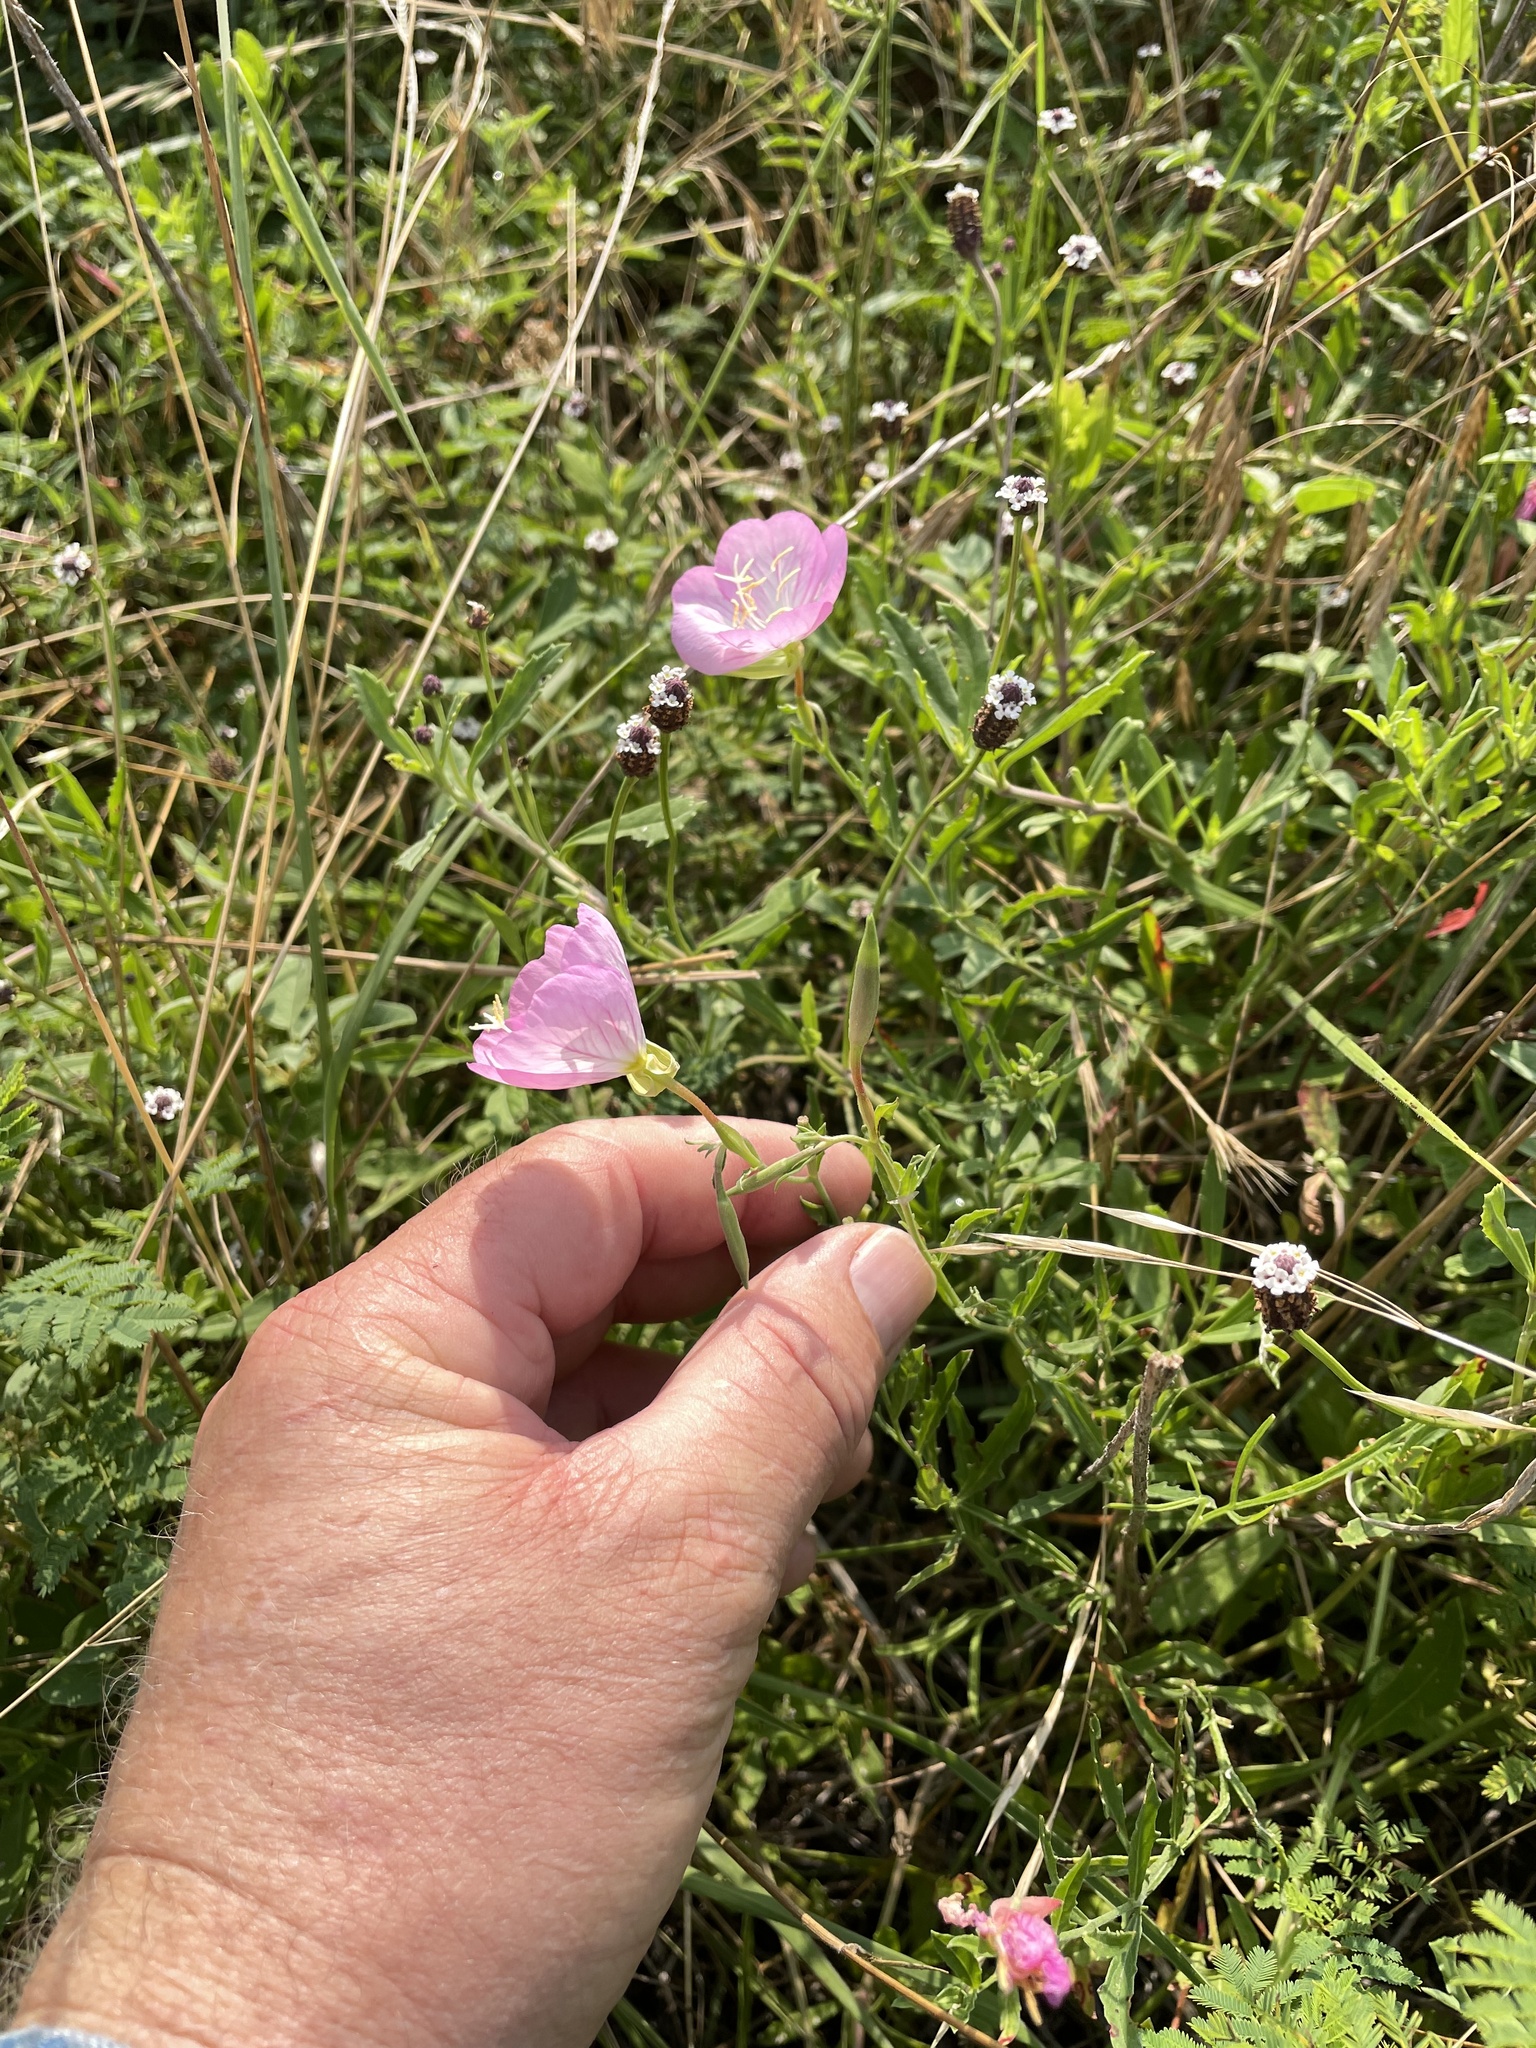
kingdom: Plantae
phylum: Tracheophyta
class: Magnoliopsida
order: Myrtales
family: Onagraceae
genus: Oenothera
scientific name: Oenothera speciosa
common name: White evening-primrose
